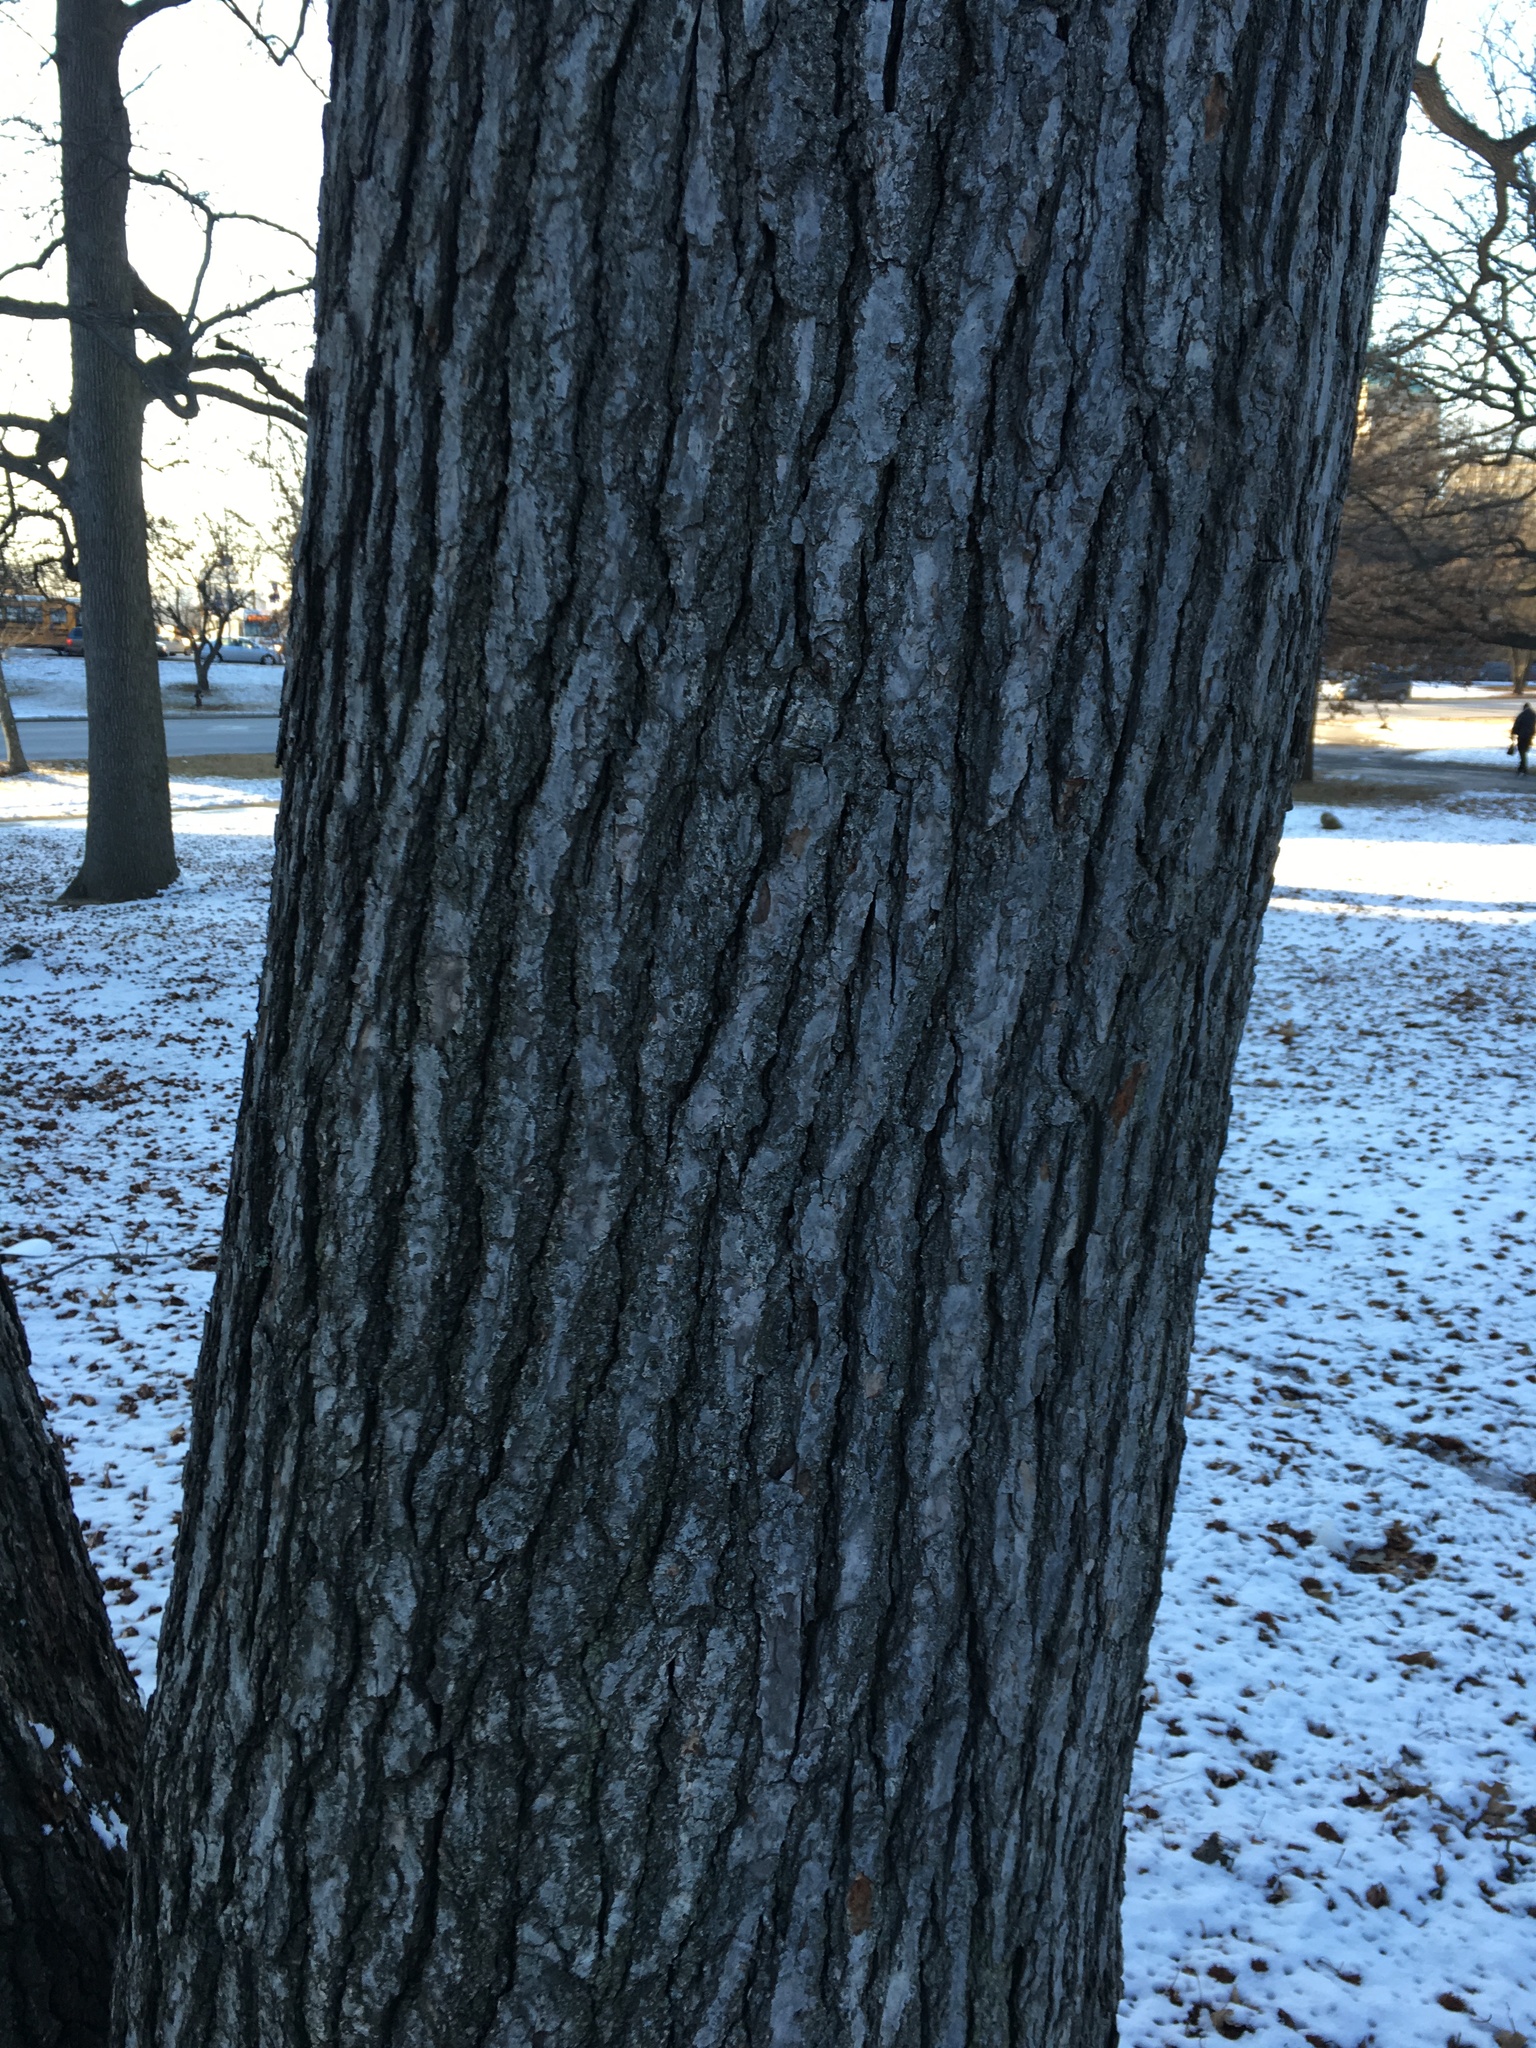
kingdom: Plantae
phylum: Tracheophyta
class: Magnoliopsida
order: Saxifragales
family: Altingiaceae
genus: Liquidambar
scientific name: Liquidambar styraciflua
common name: Sweet gum
